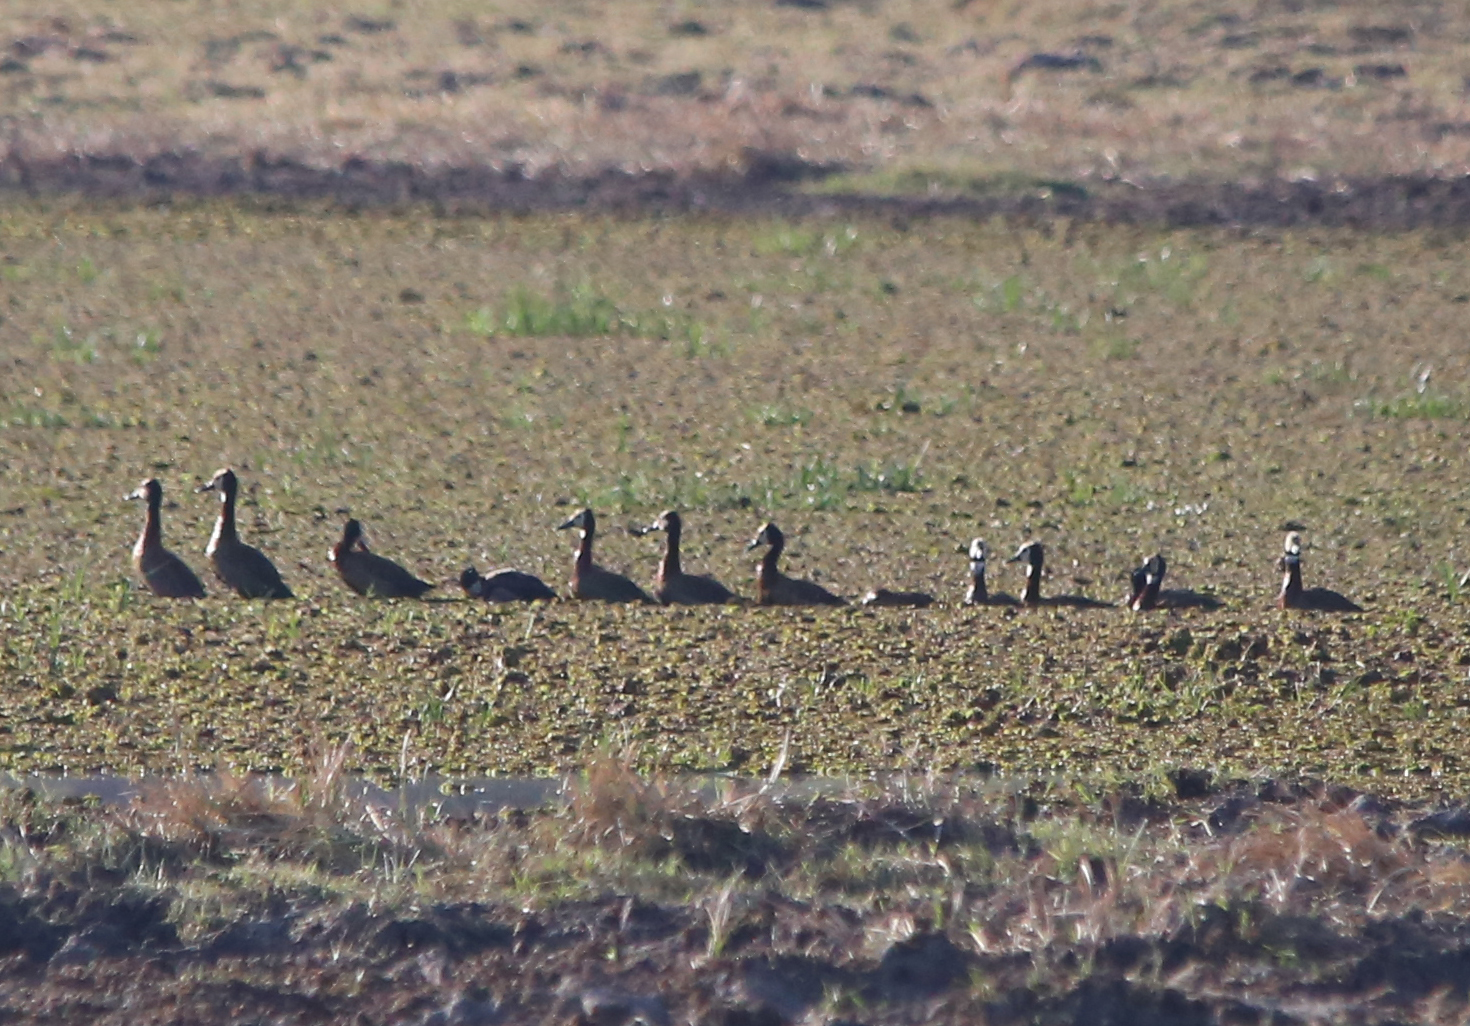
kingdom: Animalia
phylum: Chordata
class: Aves
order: Anseriformes
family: Anatidae
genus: Dendrocygna
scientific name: Dendrocygna viduata
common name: White-faced whistling duck
